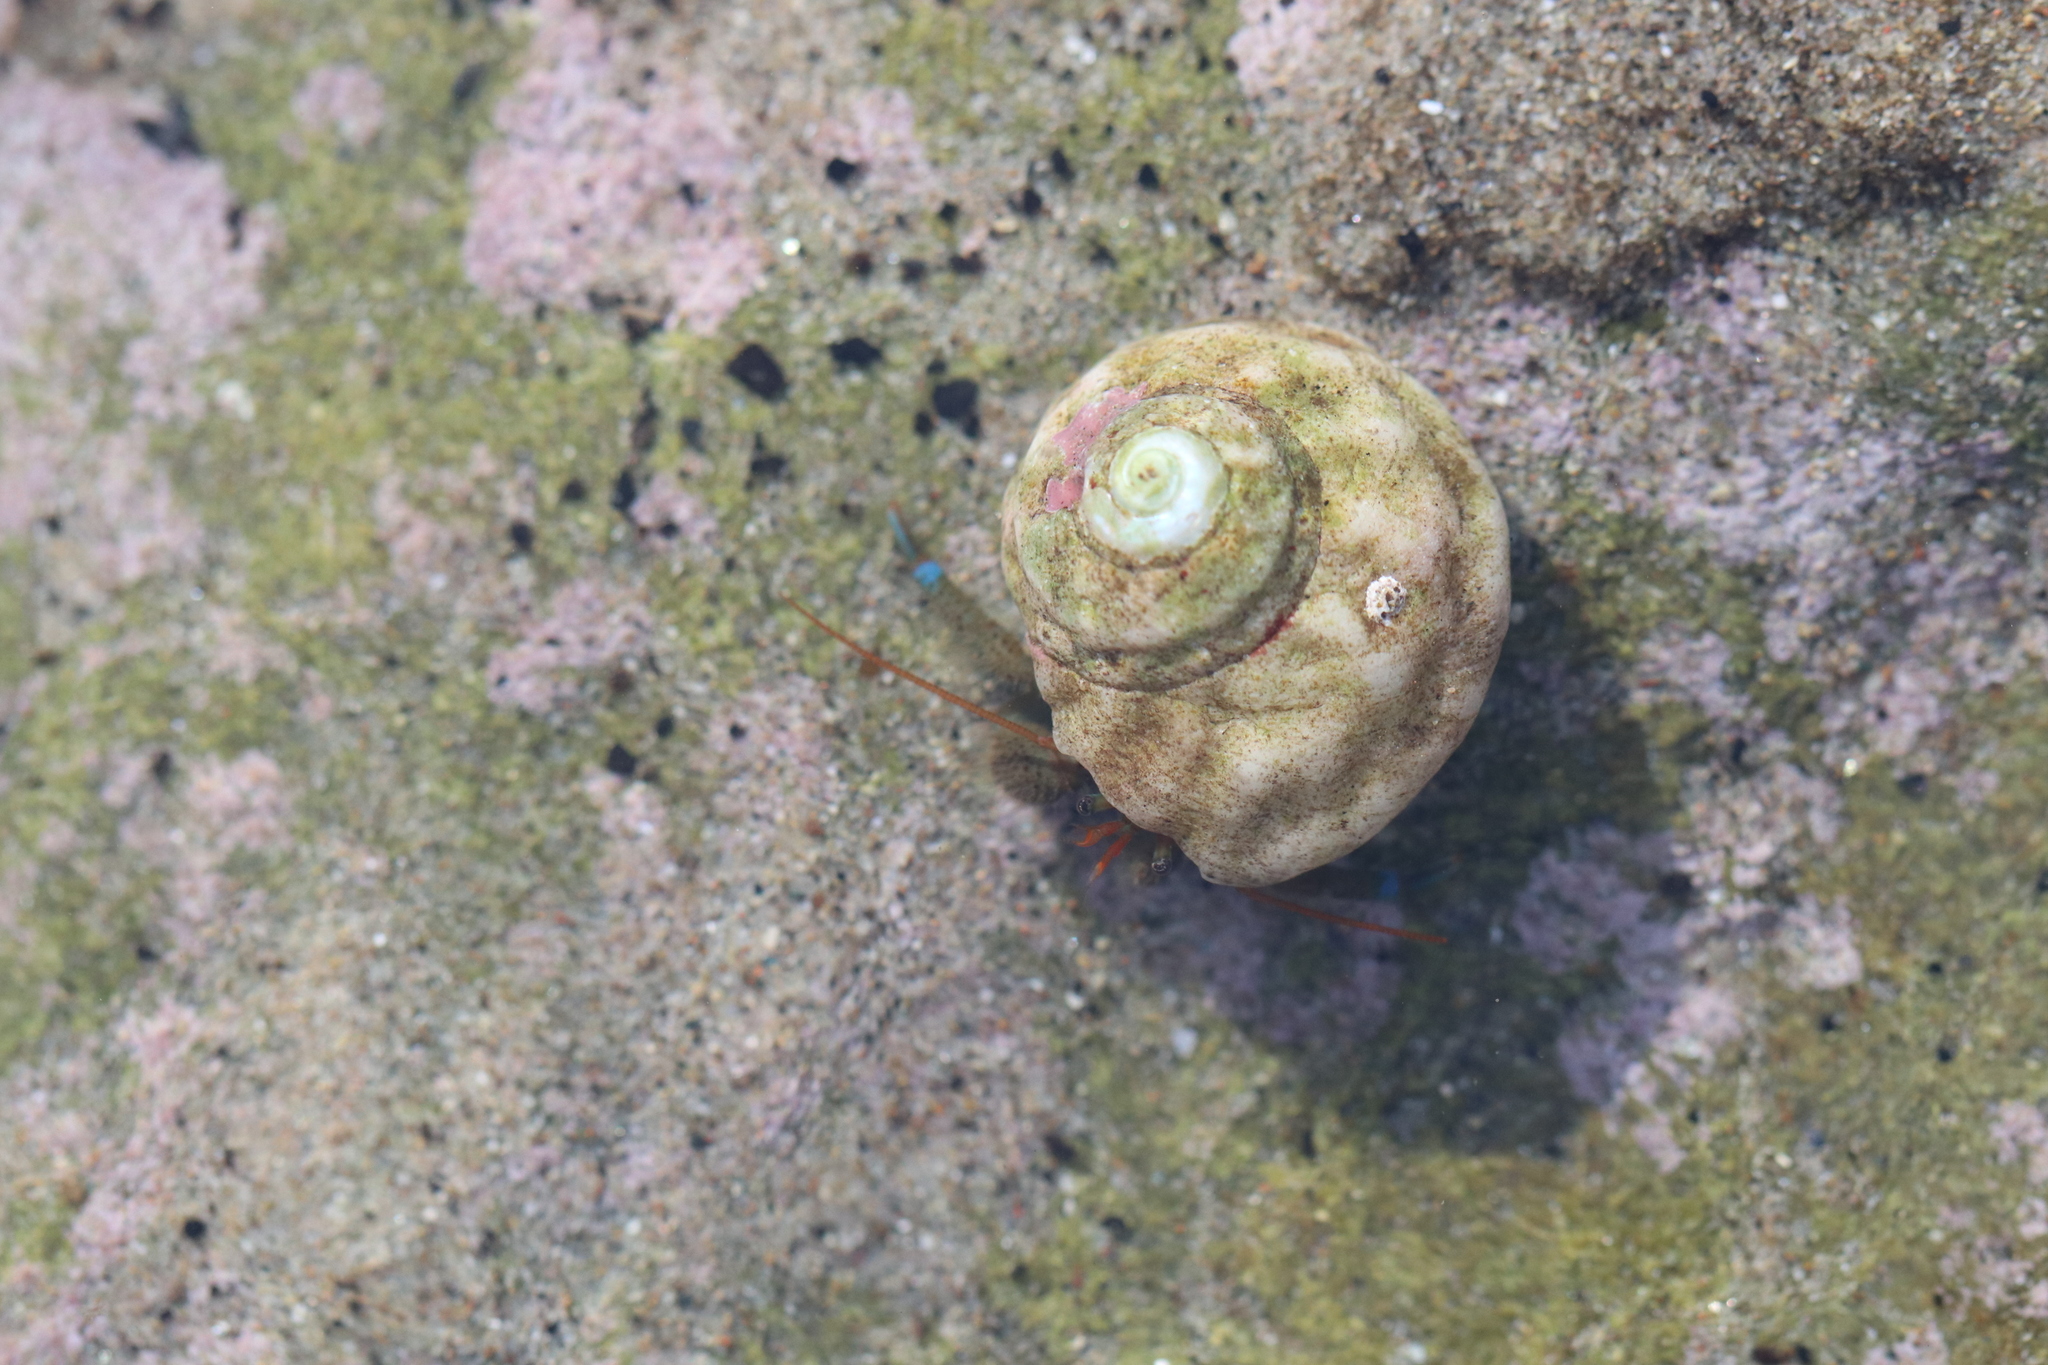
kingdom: Animalia
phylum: Arthropoda
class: Malacostraca
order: Decapoda
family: Paguridae
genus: Pagurus
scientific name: Pagurus samuelis
